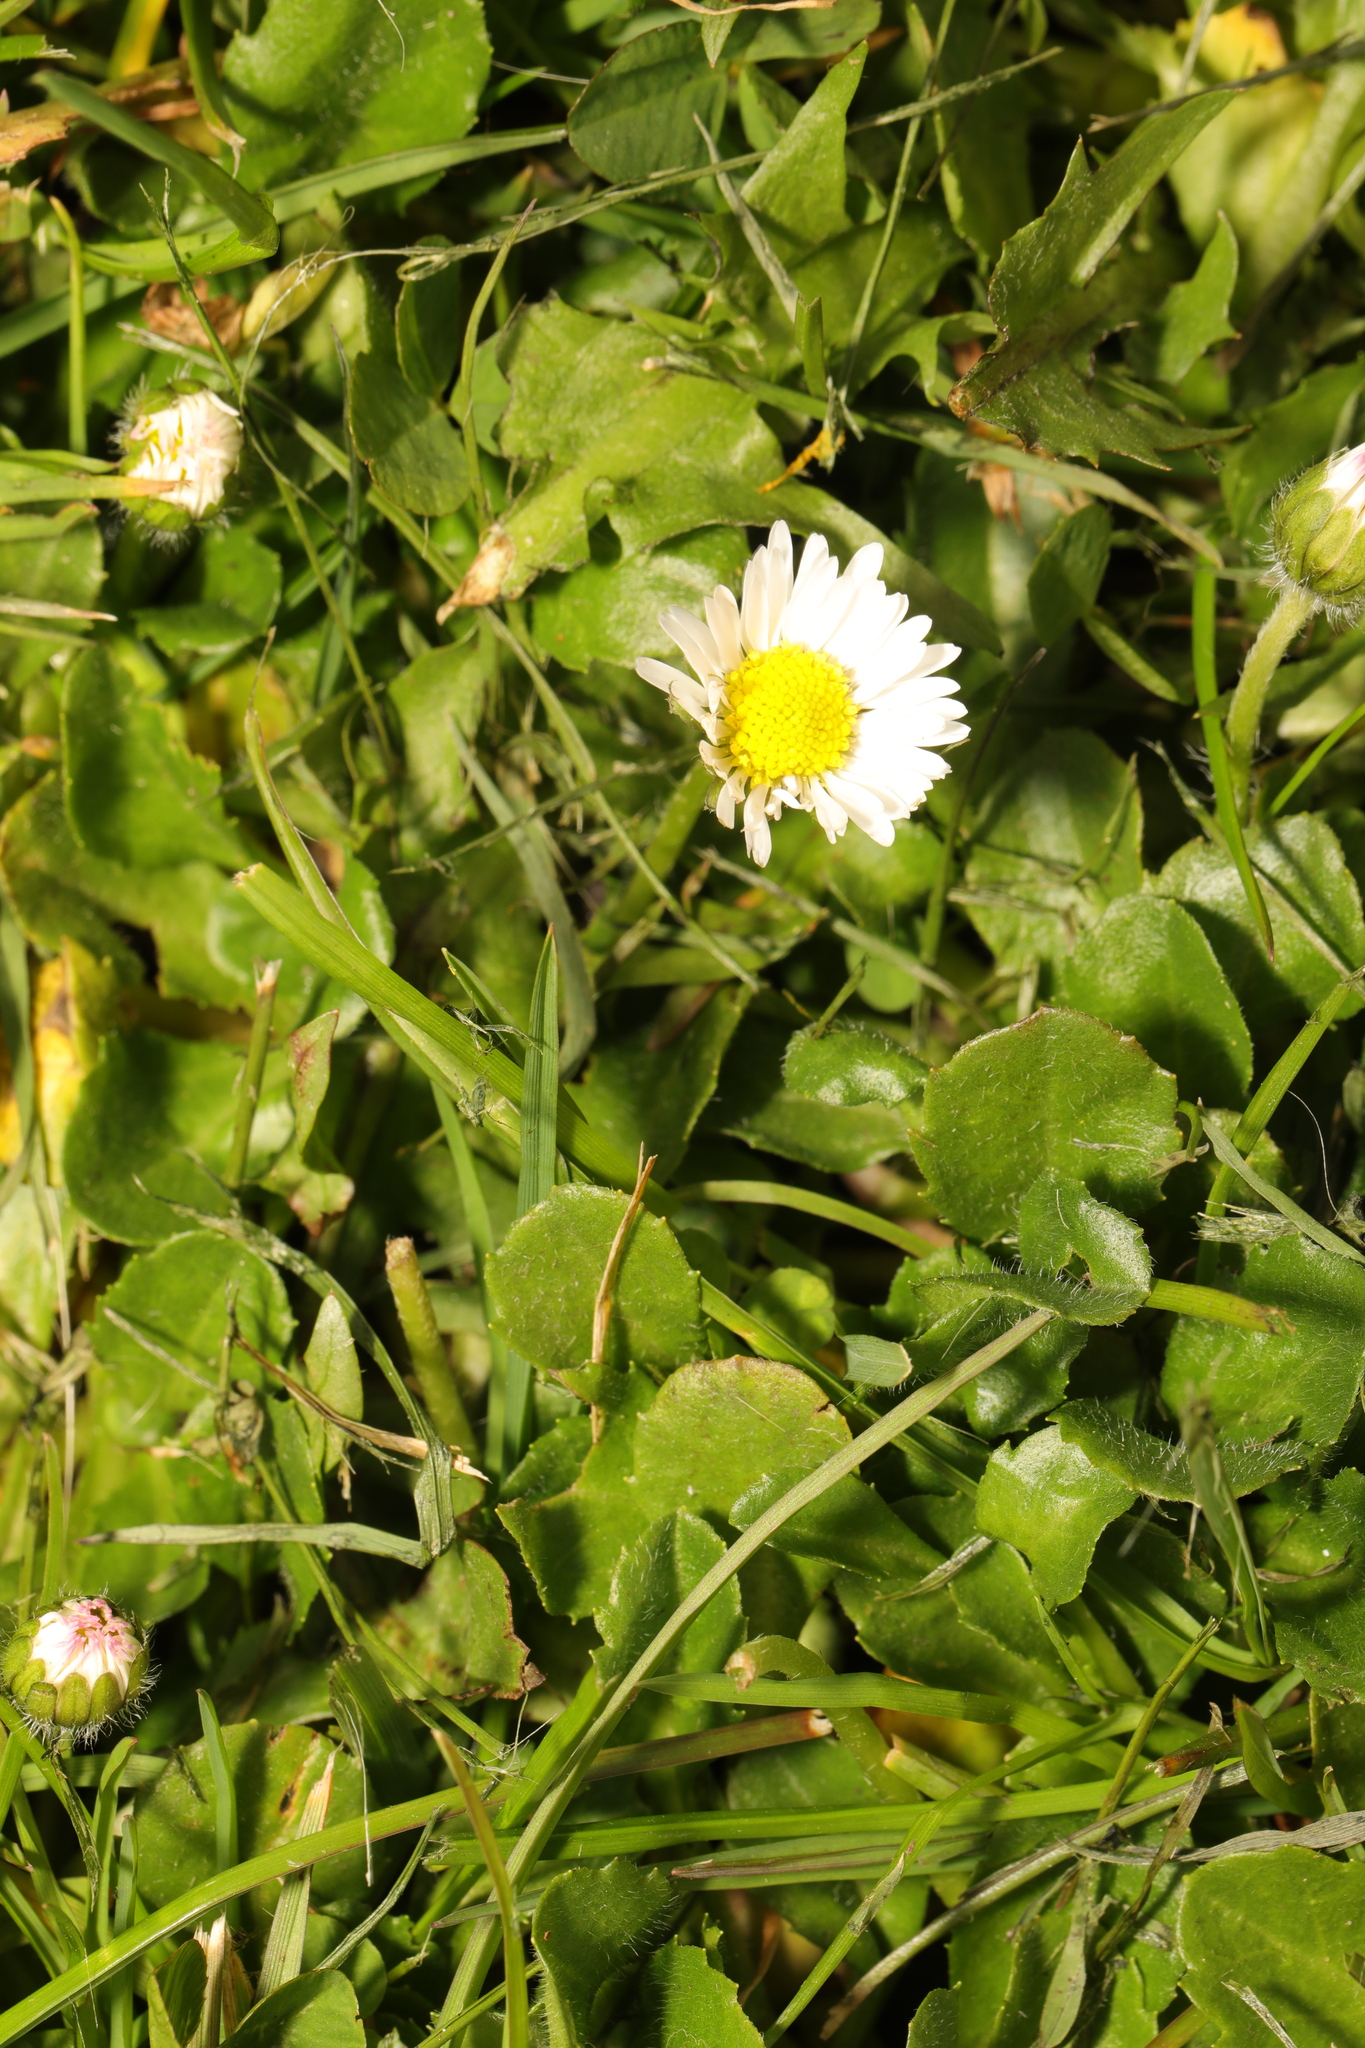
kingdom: Plantae
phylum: Tracheophyta
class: Magnoliopsida
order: Asterales
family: Asteraceae
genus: Bellis
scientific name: Bellis perennis
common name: Lawndaisy
